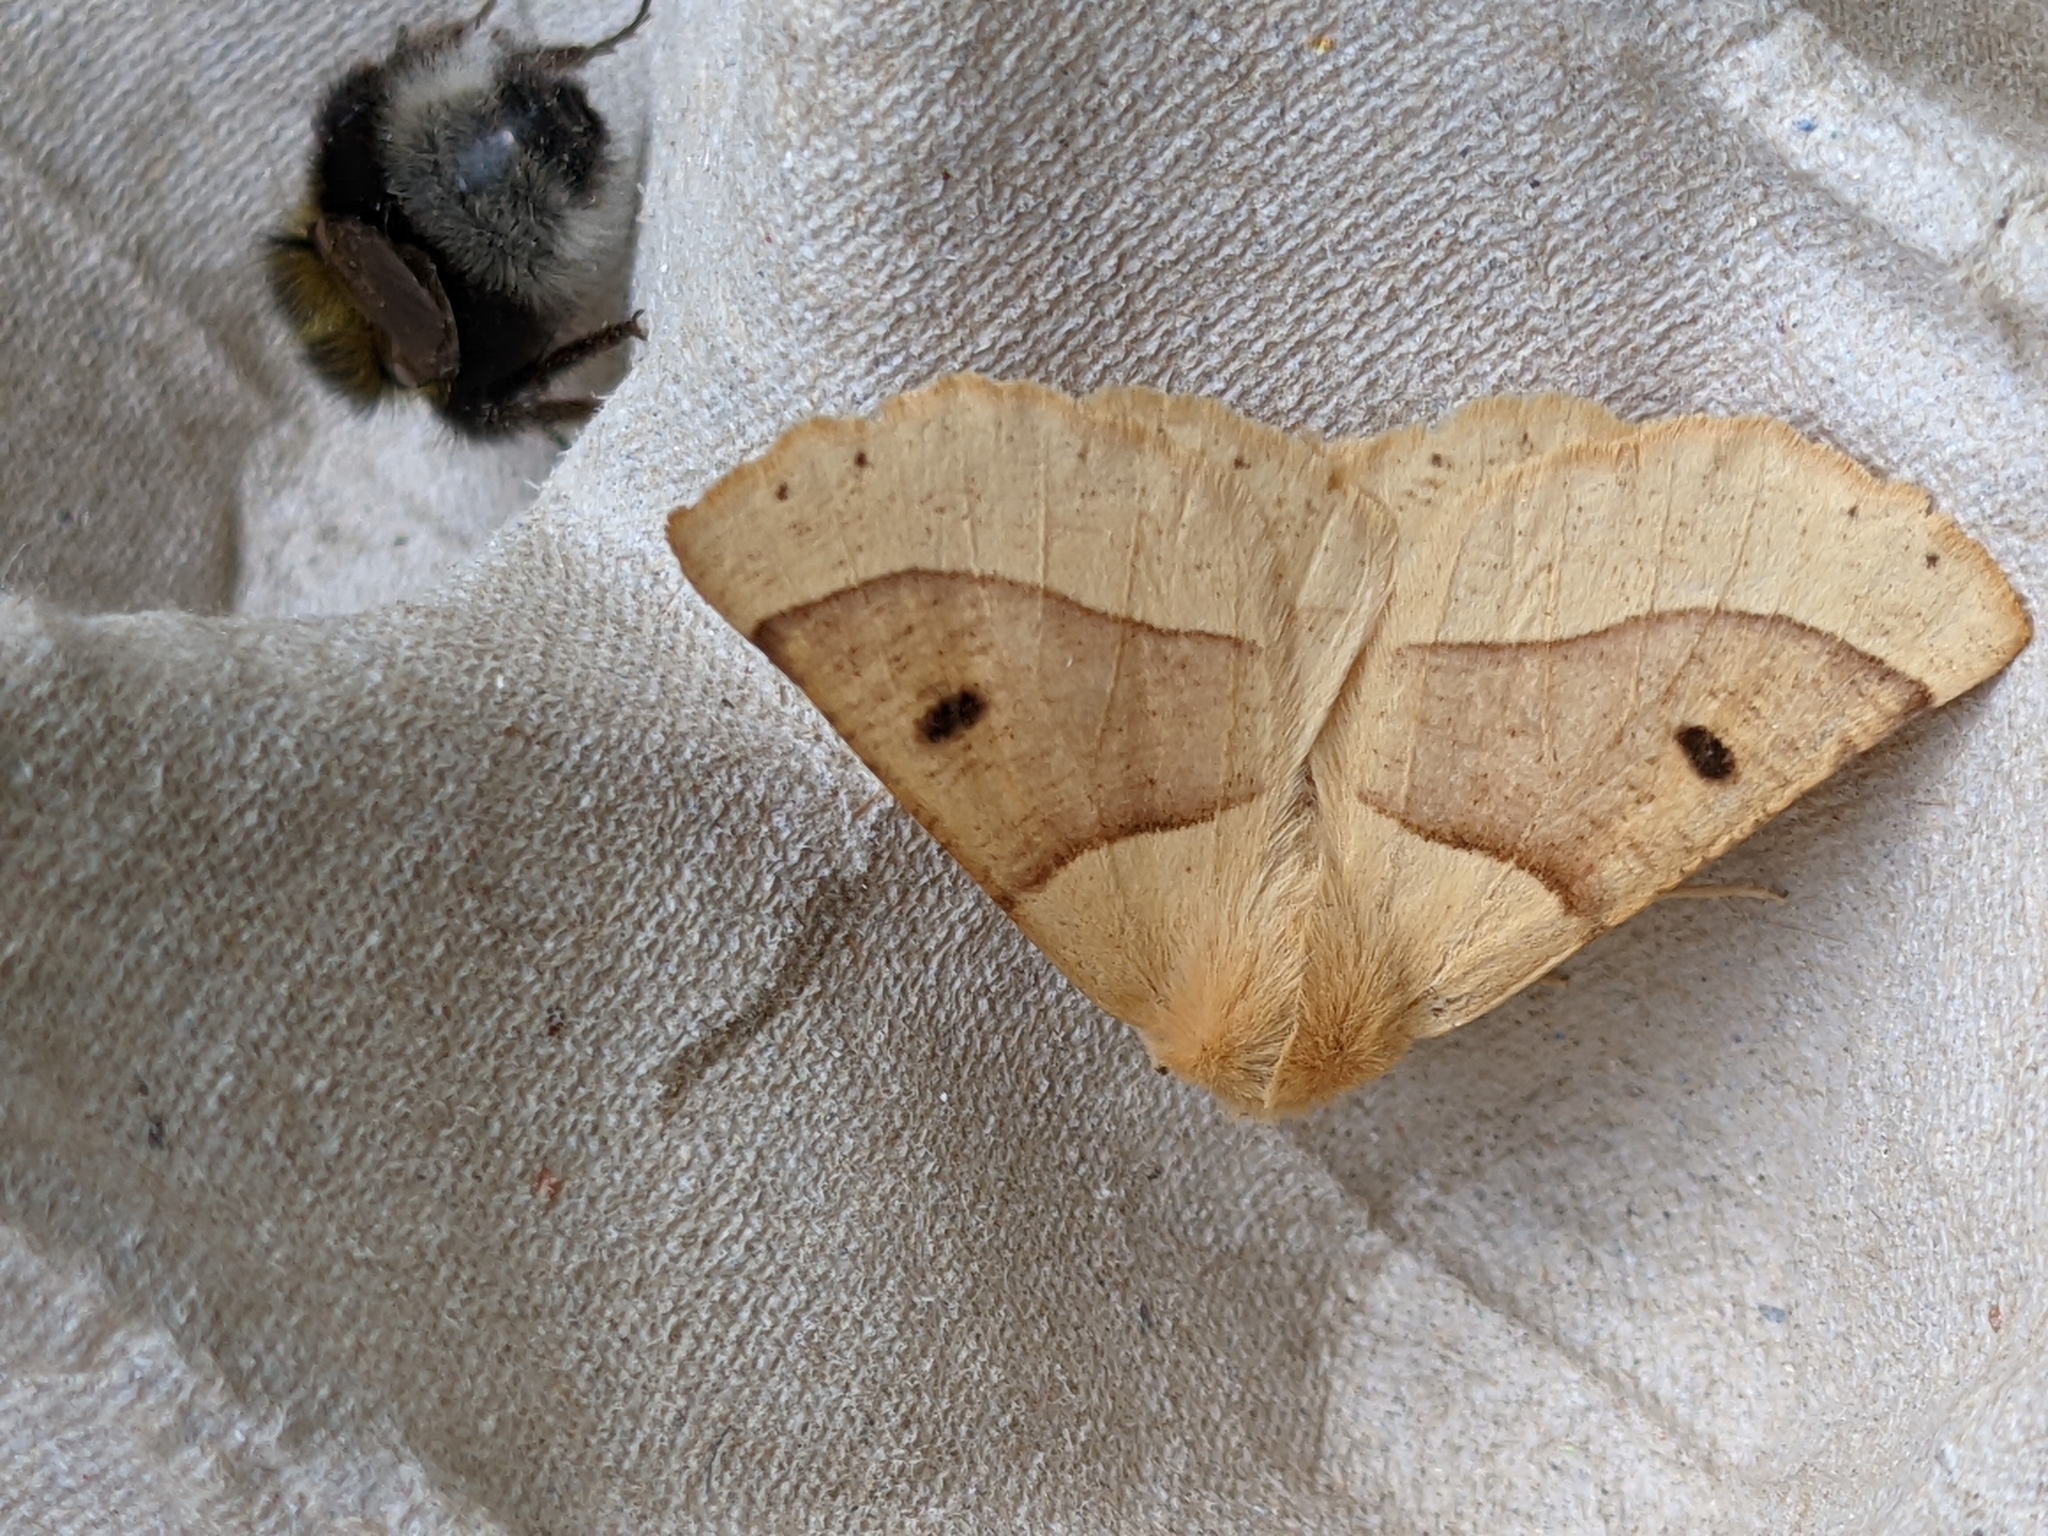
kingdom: Animalia
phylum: Arthropoda
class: Insecta
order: Lepidoptera
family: Geometridae
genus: Crocallis
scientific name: Crocallis elinguaria
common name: Scalloped oak
